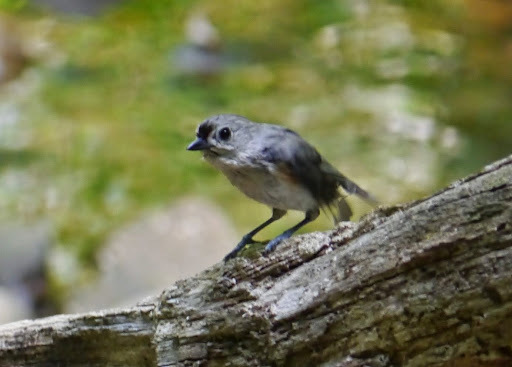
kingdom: Animalia
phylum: Chordata
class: Aves
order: Passeriformes
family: Paridae
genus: Baeolophus
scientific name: Baeolophus bicolor
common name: Tufted titmouse
